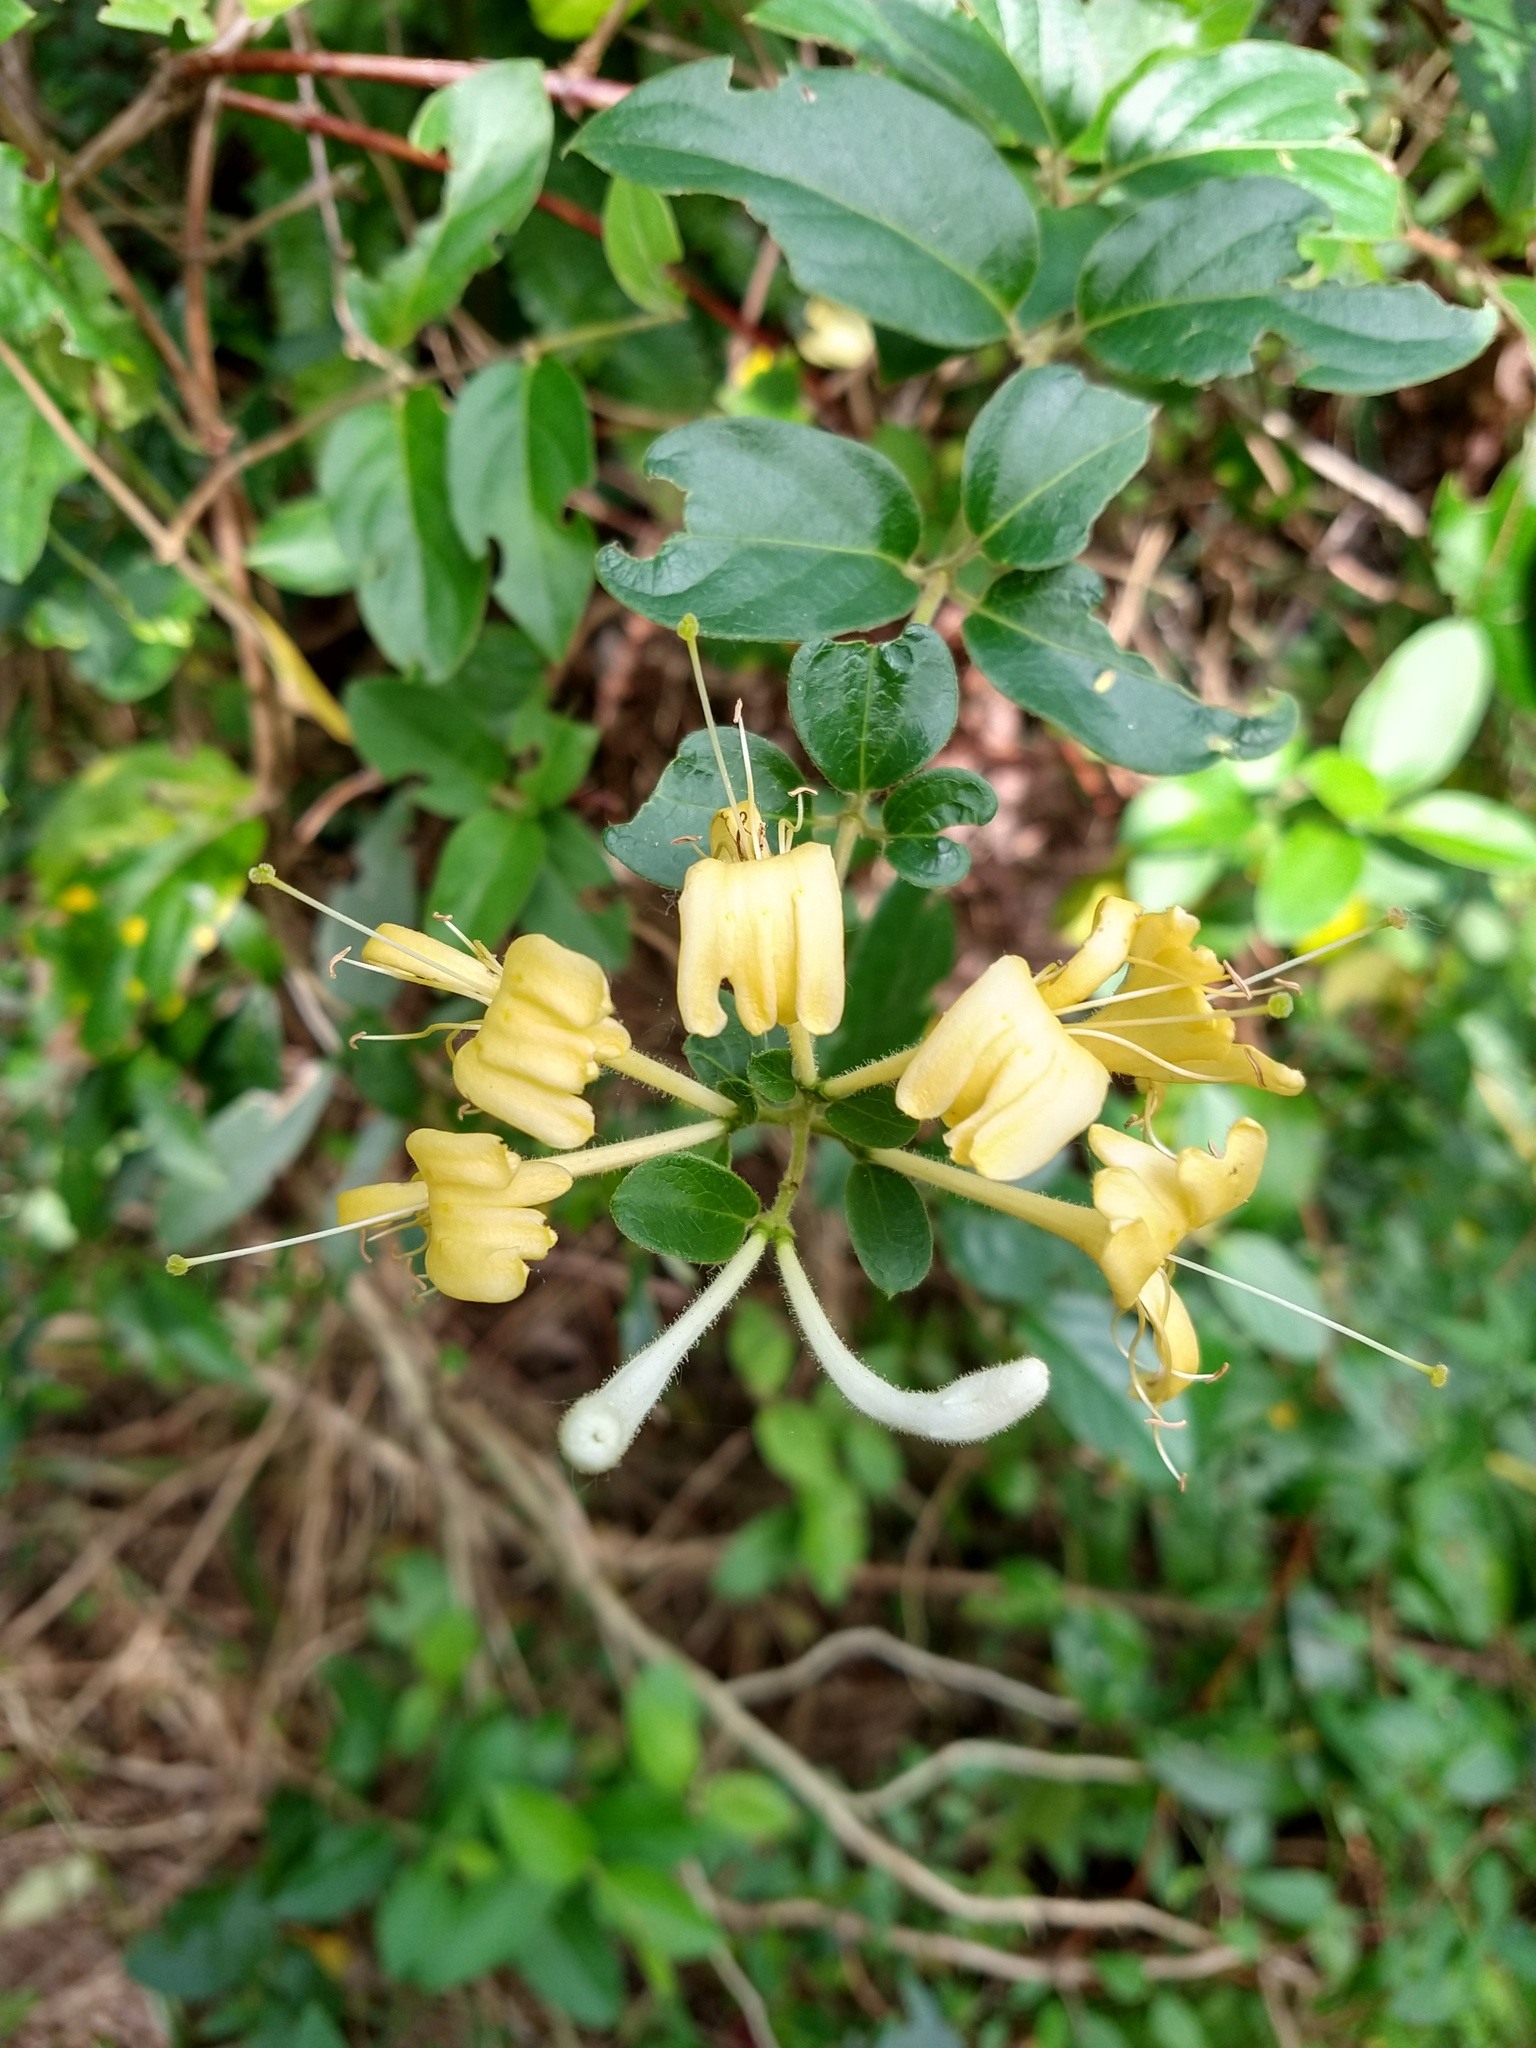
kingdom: Plantae
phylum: Tracheophyta
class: Magnoliopsida
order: Dipsacales
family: Caprifoliaceae
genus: Lonicera
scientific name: Lonicera japonica
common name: Japanese honeysuckle
